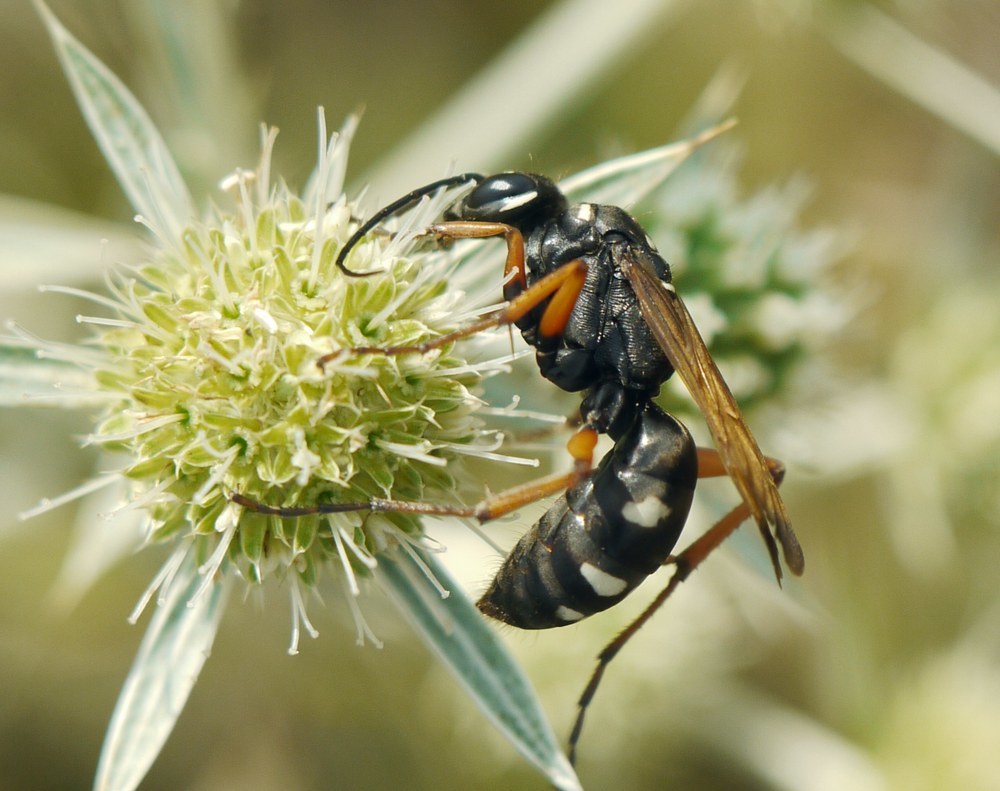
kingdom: Animalia
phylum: Arthropoda
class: Insecta
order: Hymenoptera
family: Pompilidae
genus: Cryptocheilus
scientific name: Cryptocheilus variabilis
